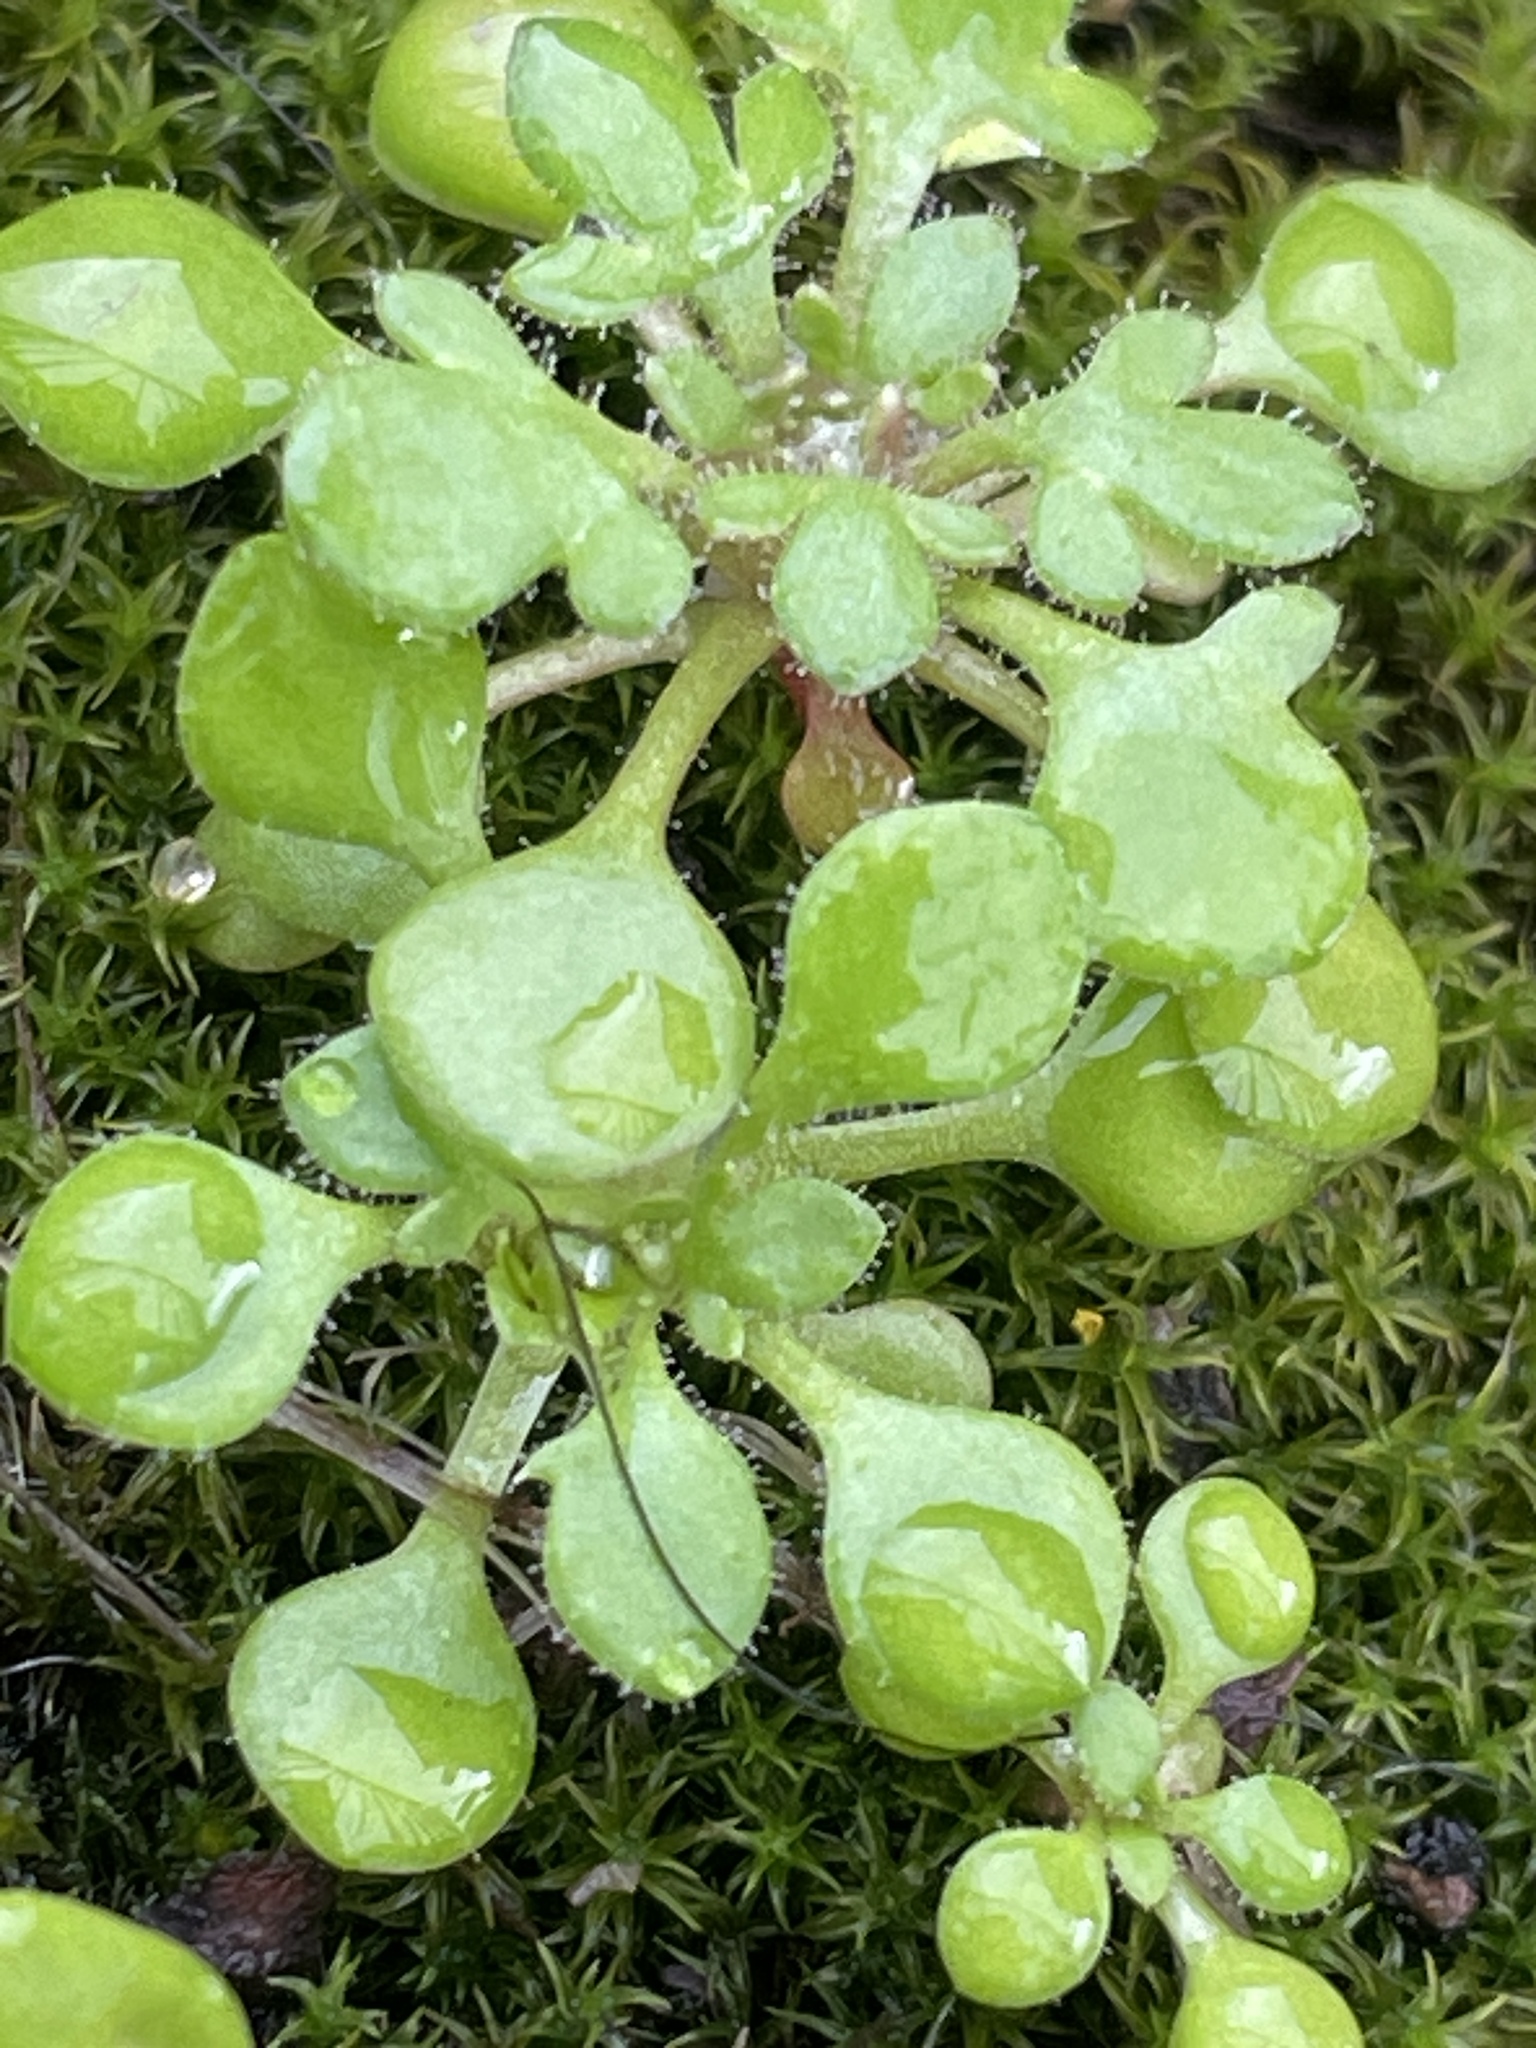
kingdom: Plantae
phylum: Tracheophyta
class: Magnoliopsida
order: Saxifragales
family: Saxifragaceae
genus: Saxifraga
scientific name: Saxifraga tridactylites
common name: Rue-leaved saxifrage
